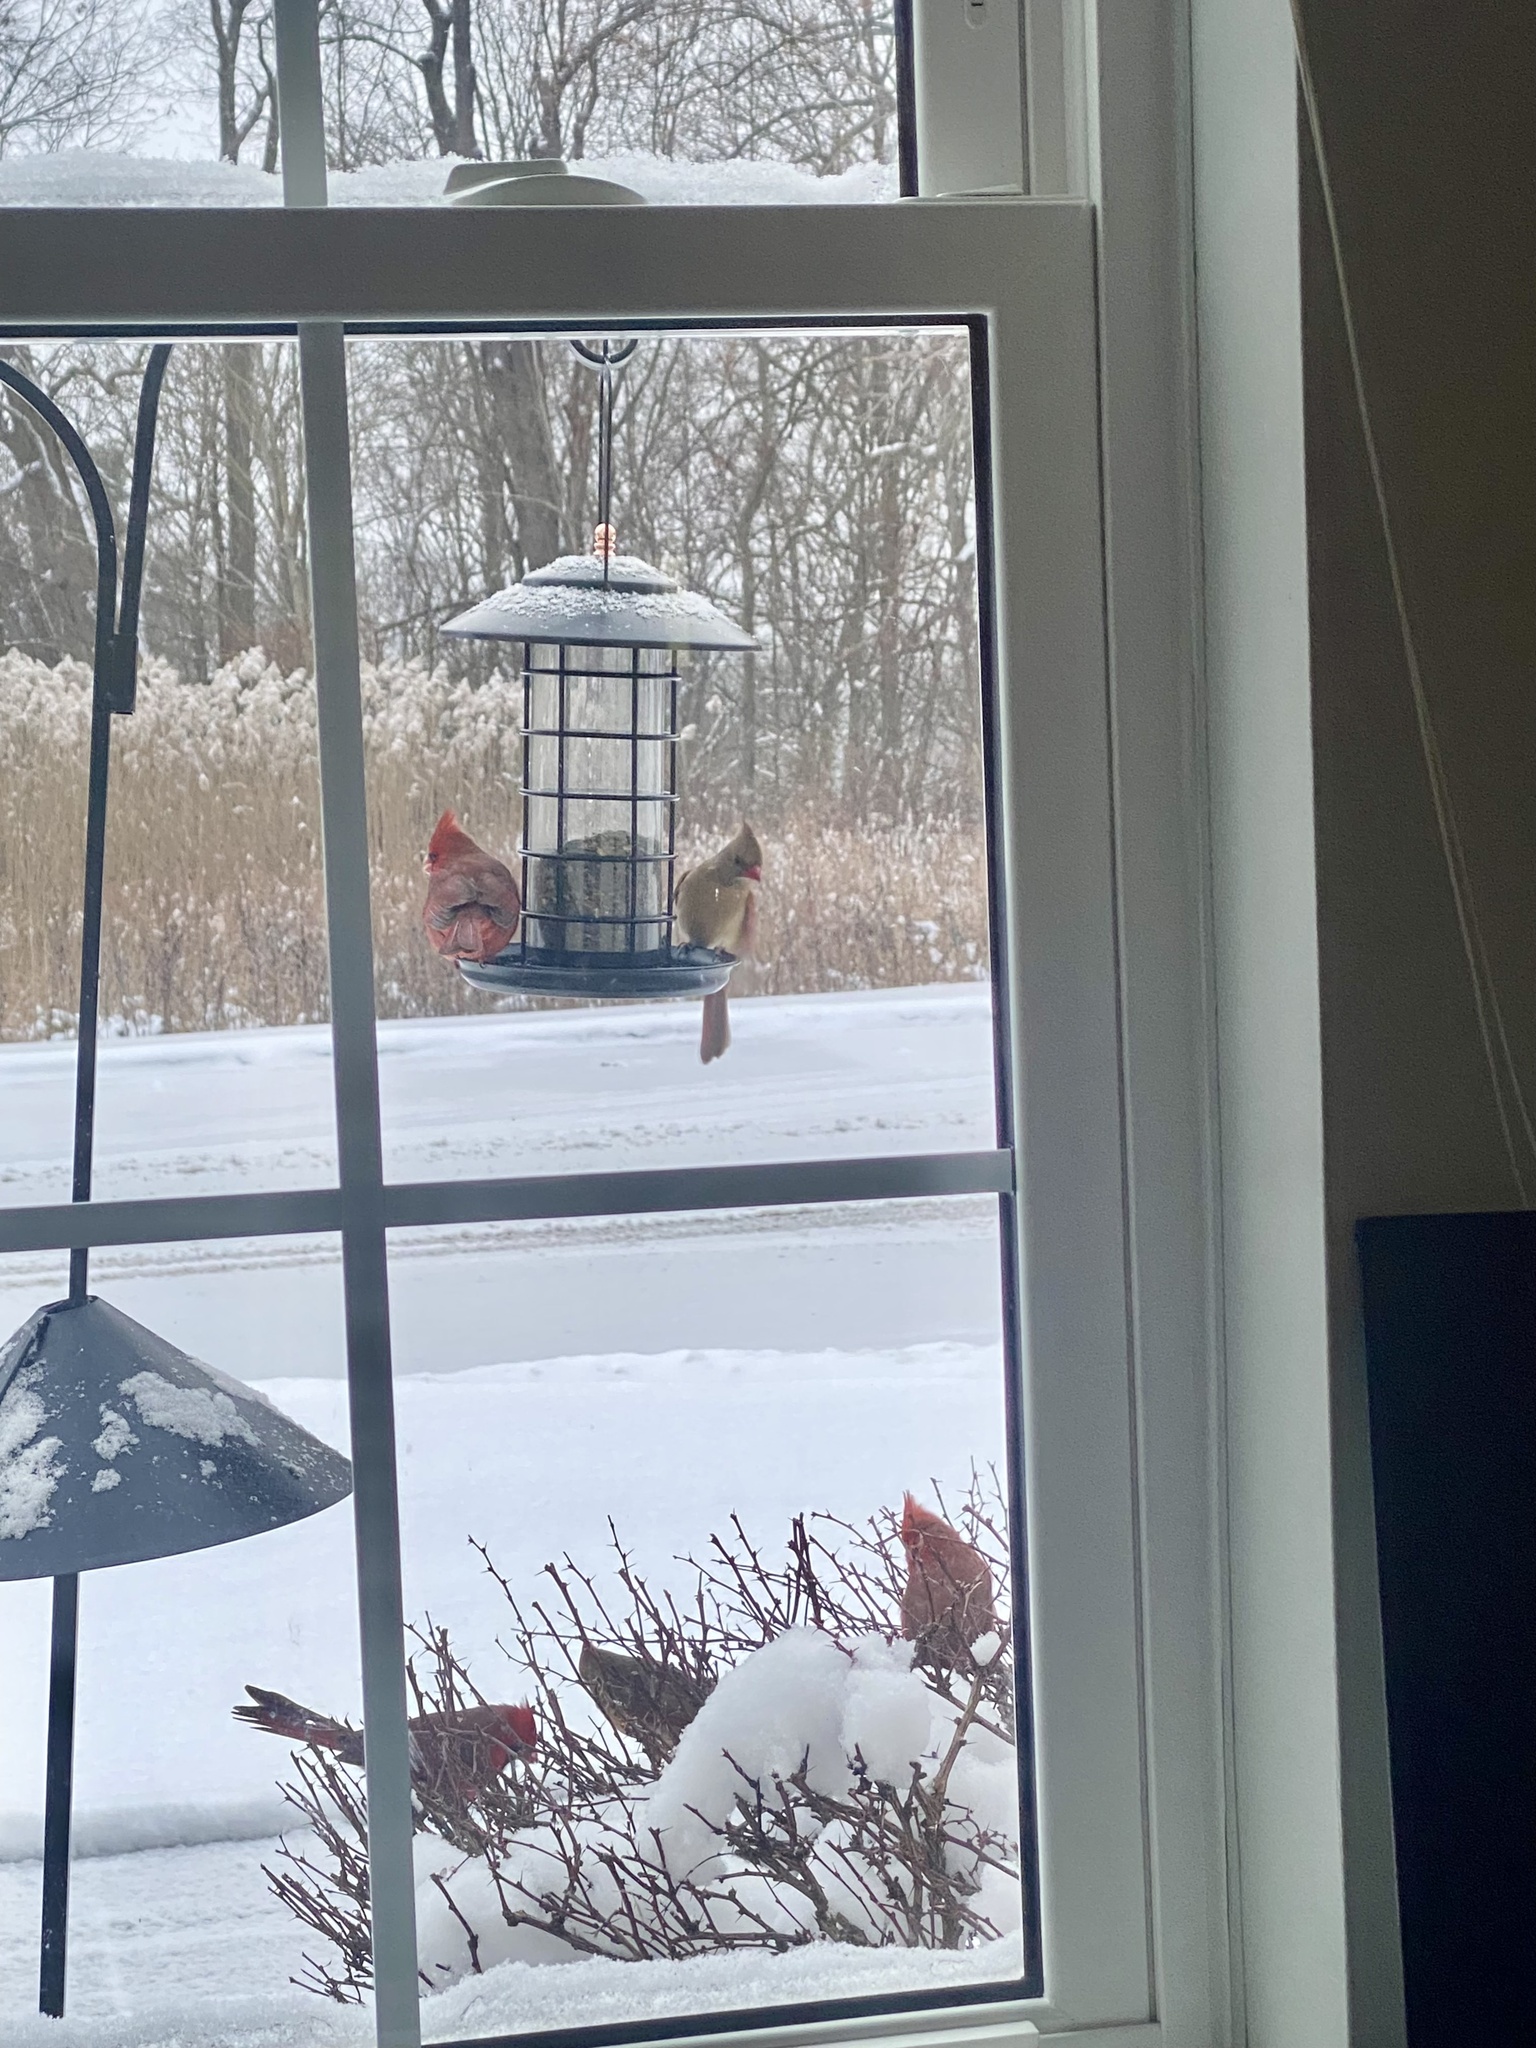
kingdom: Animalia
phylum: Chordata
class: Aves
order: Passeriformes
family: Cardinalidae
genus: Cardinalis
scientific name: Cardinalis cardinalis
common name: Northern cardinal
